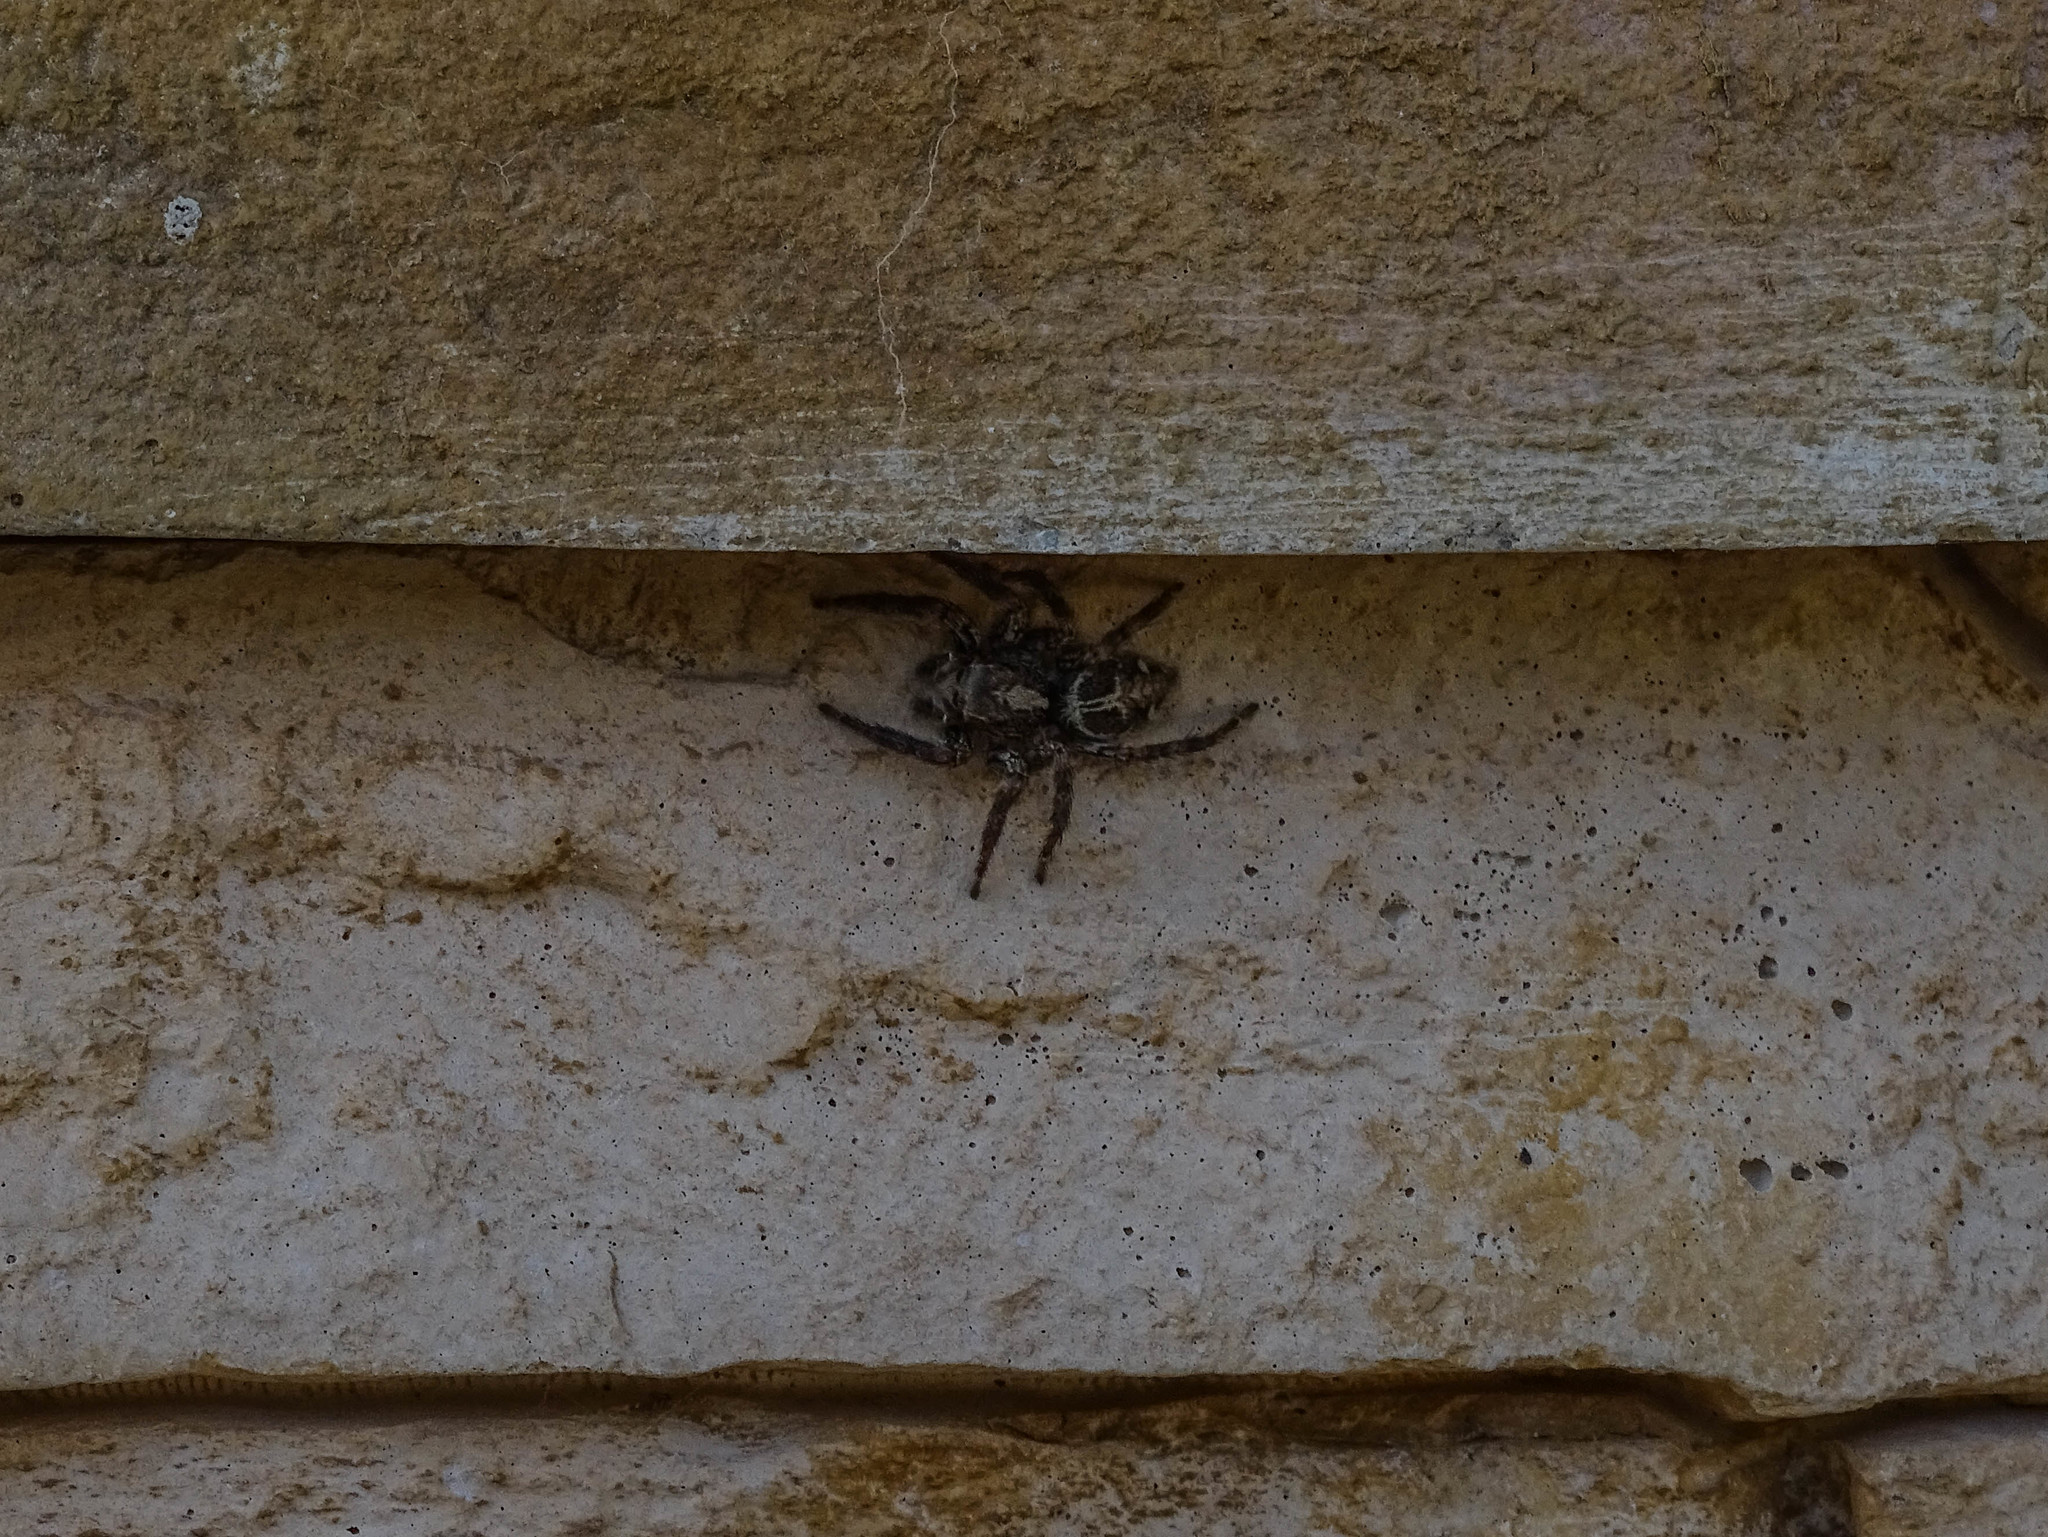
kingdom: Animalia
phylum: Arthropoda
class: Arachnida
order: Araneae
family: Salticidae
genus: Plexippus
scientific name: Plexippus paykulli
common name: Pantropical jumper
